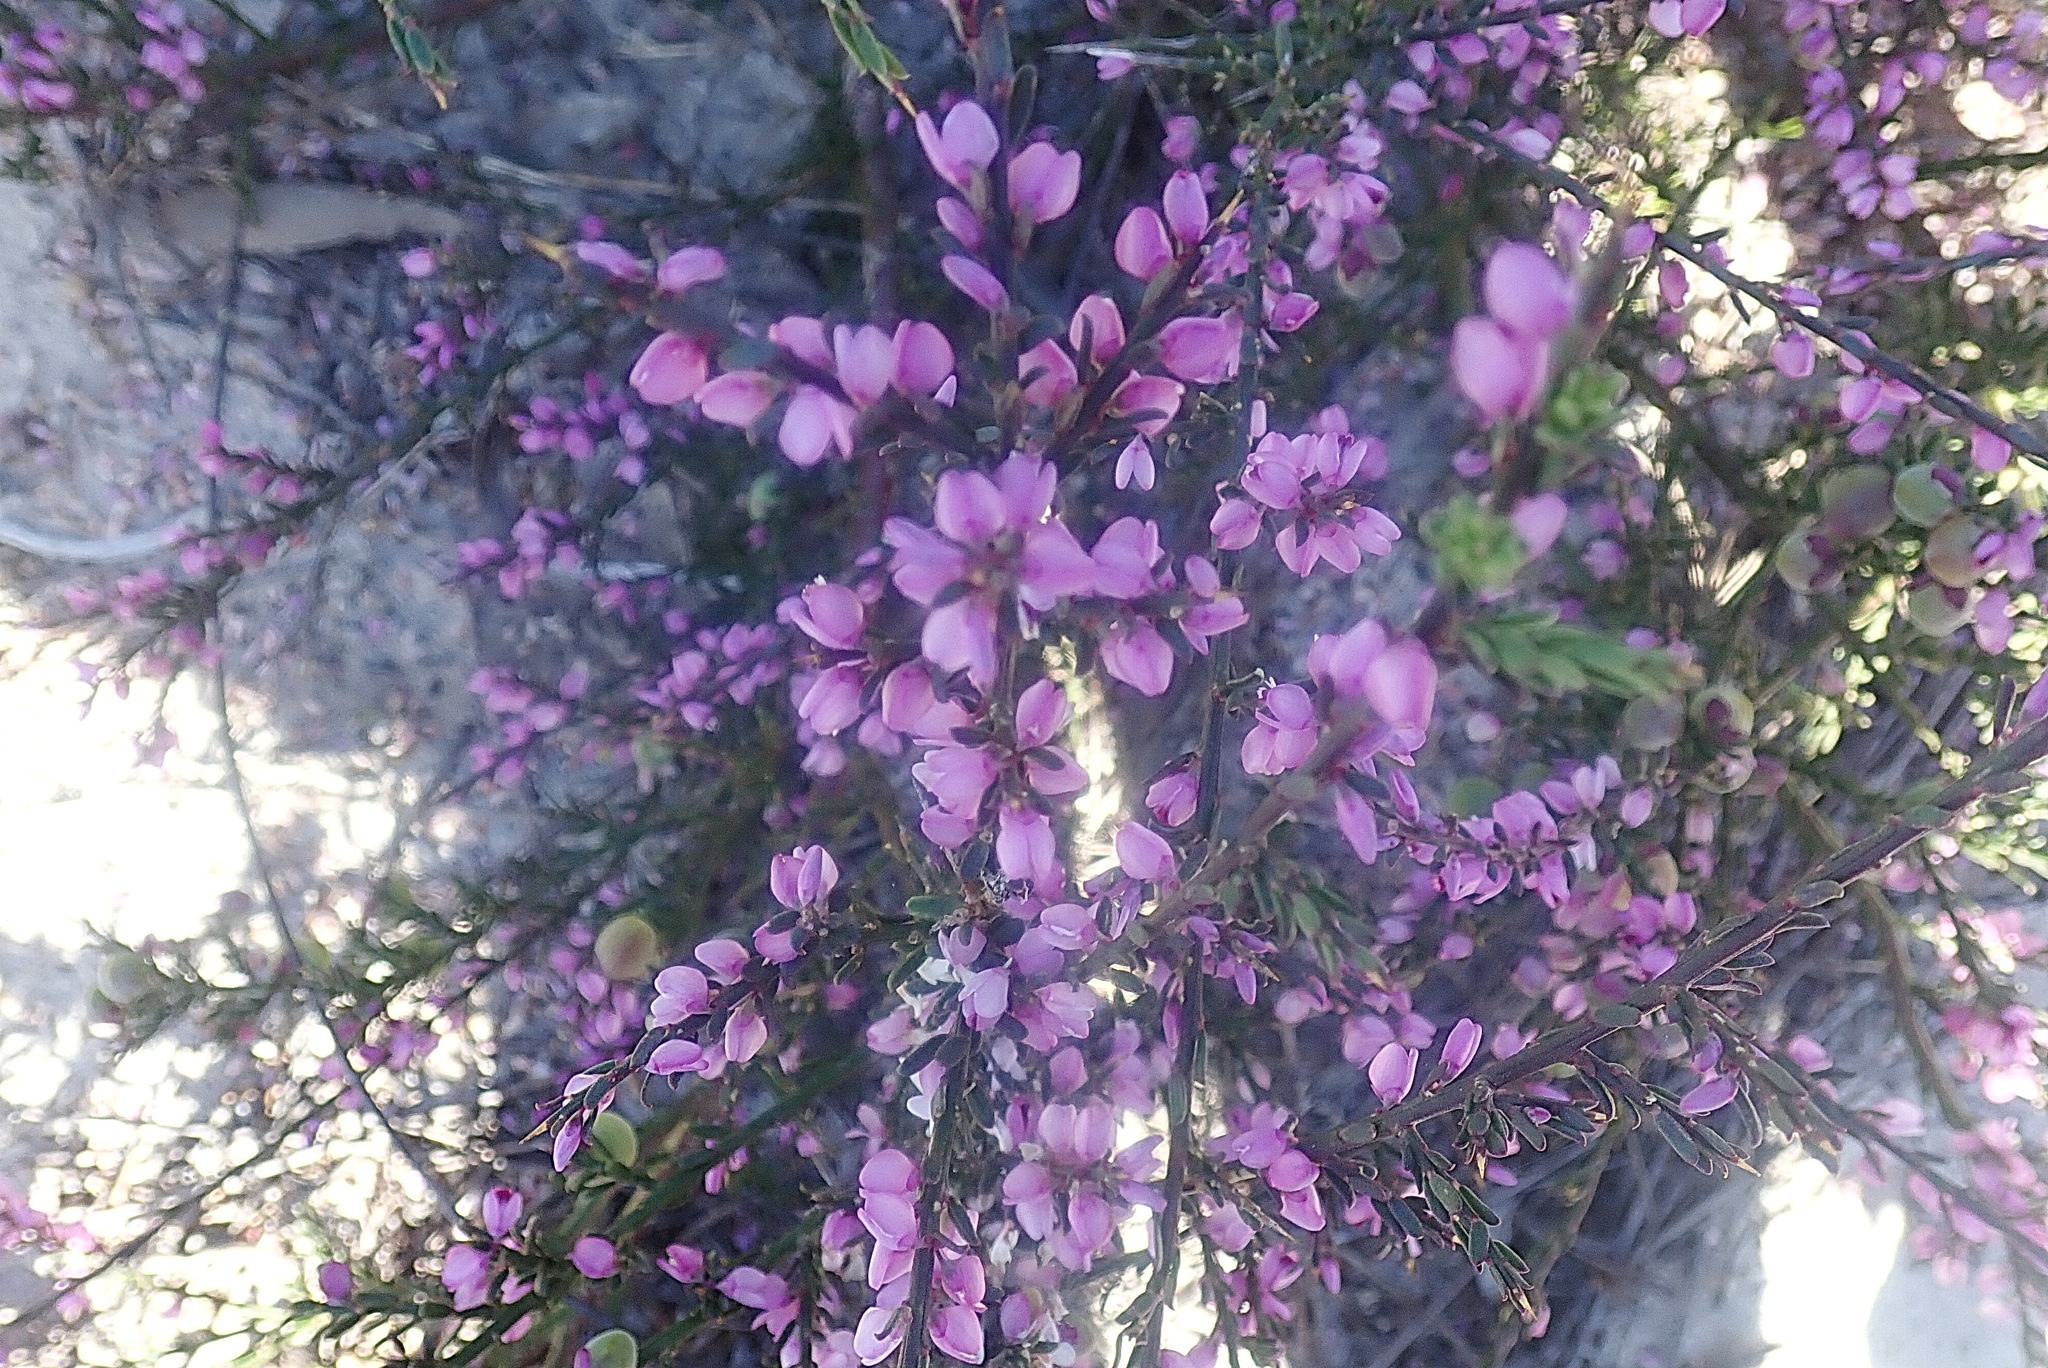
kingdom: Plantae
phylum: Tracheophyta
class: Magnoliopsida
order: Fabales
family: Polygalaceae
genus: Muraltia
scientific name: Muraltia spinosa
